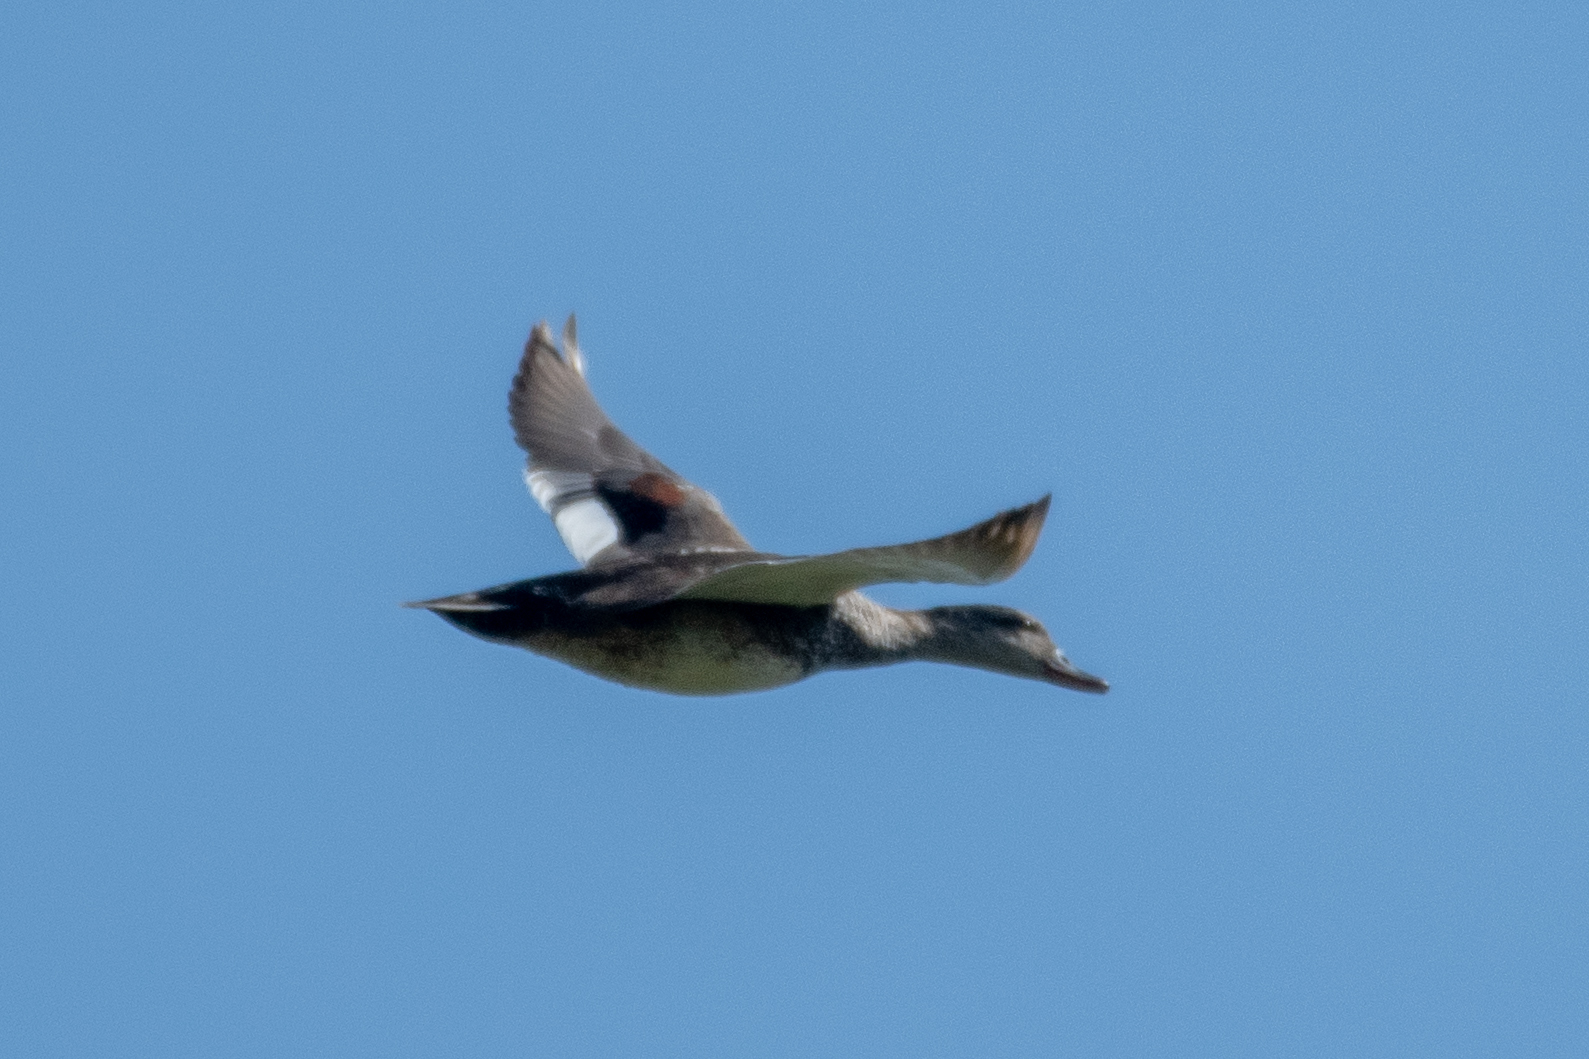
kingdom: Animalia
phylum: Chordata
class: Aves
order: Anseriformes
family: Anatidae
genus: Mareca
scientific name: Mareca strepera
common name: Gadwall
